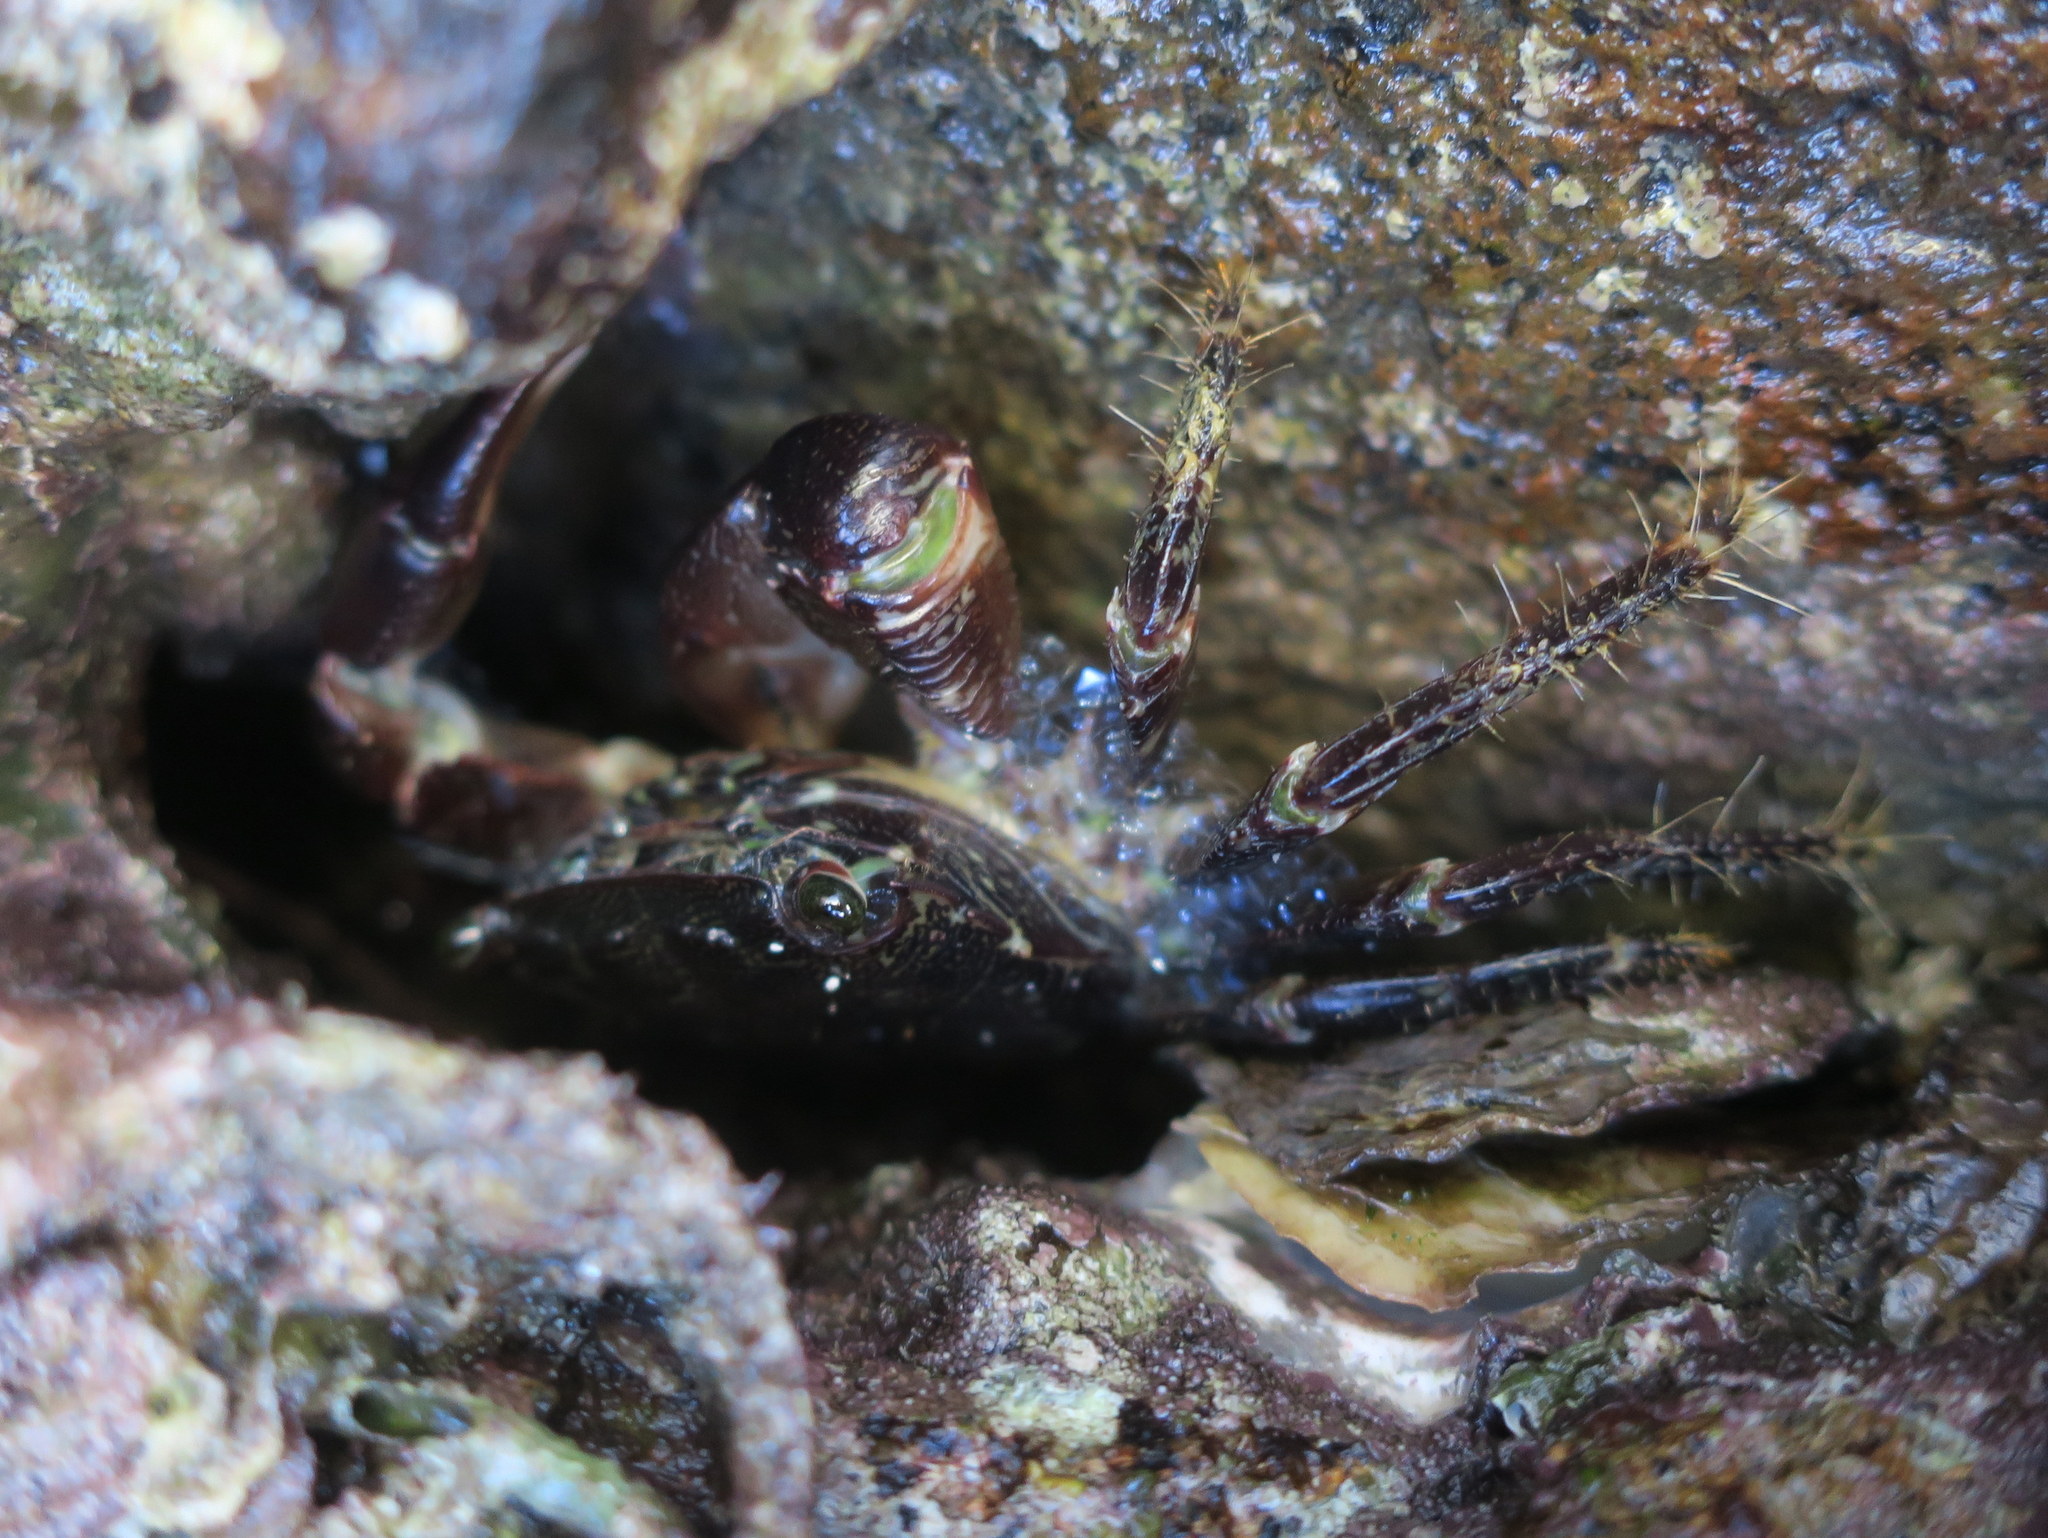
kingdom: Animalia
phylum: Arthropoda
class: Malacostraca
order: Decapoda
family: Grapsidae
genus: Pachygrapsus
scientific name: Pachygrapsus marmoratus
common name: Marbled rock crab
